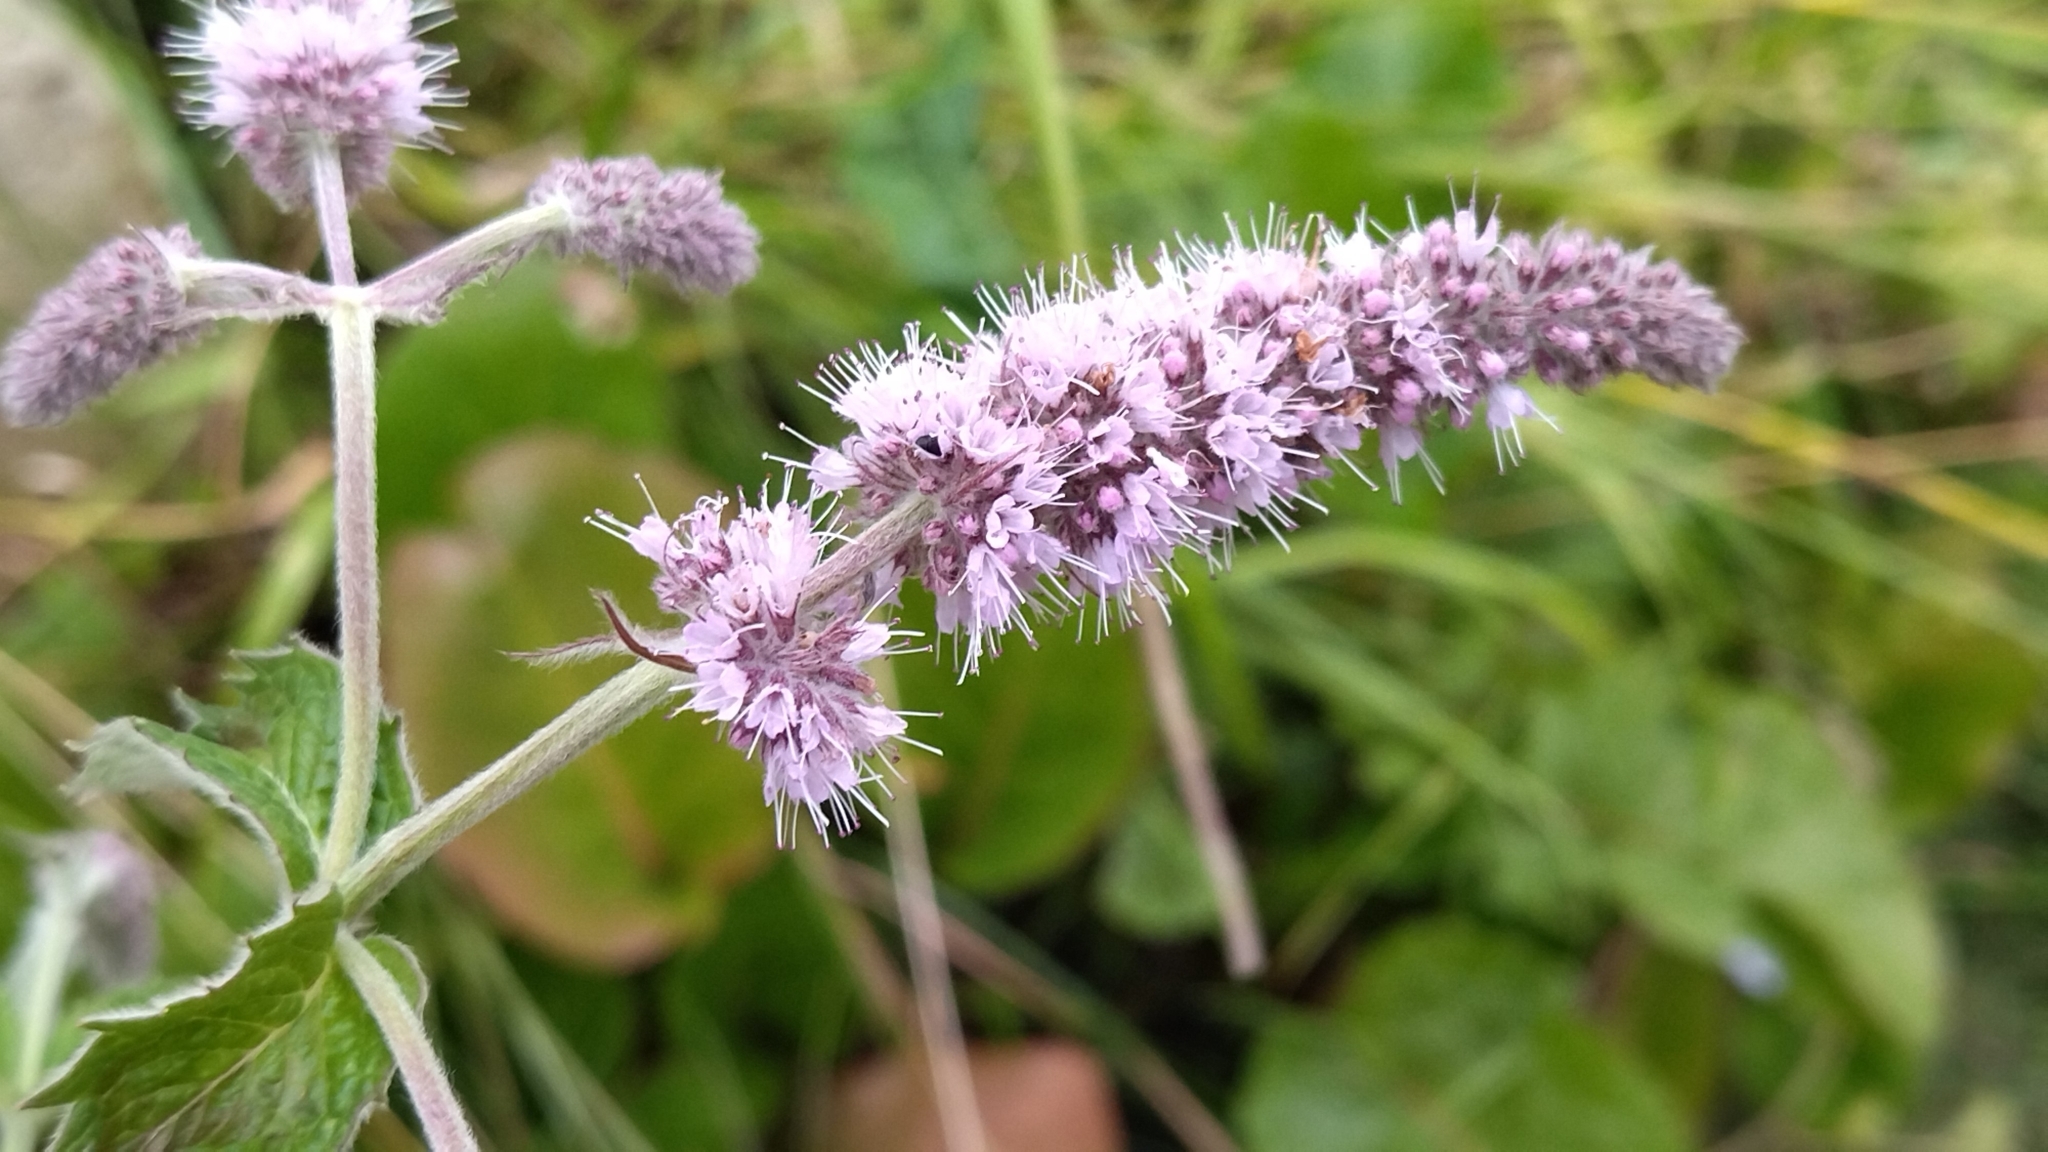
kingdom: Plantae
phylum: Tracheophyta
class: Magnoliopsida
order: Lamiales
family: Lamiaceae
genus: Mentha
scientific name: Mentha longifolia
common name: Horse mint
